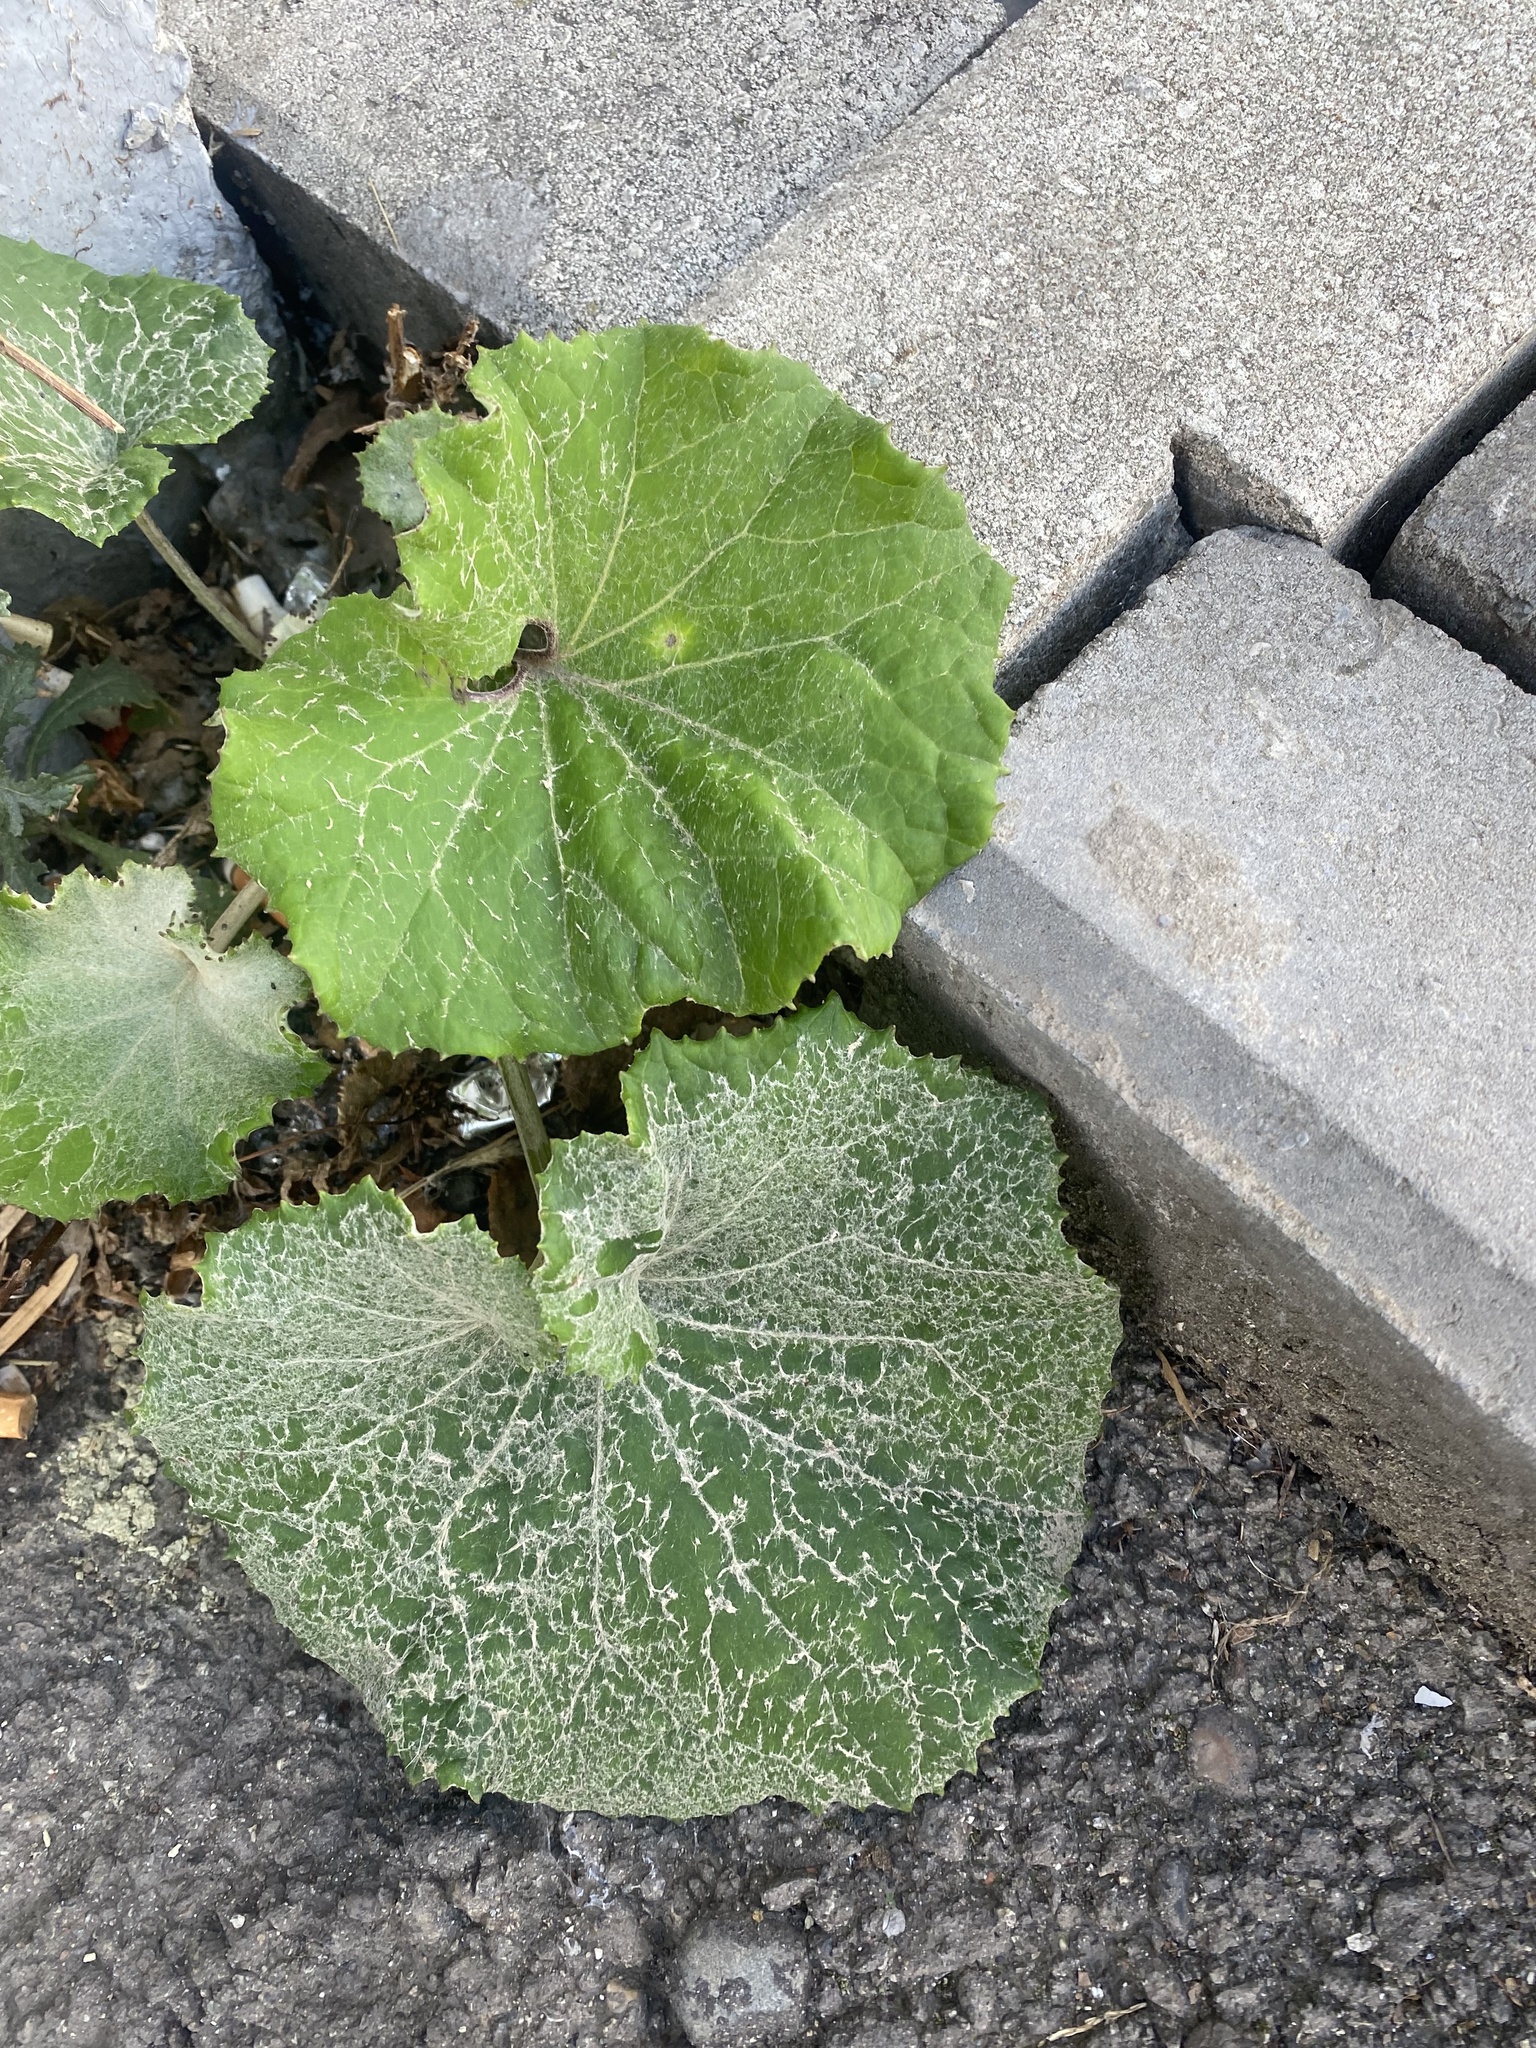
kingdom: Plantae
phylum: Tracheophyta
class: Magnoliopsida
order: Asterales
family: Asteraceae
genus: Tussilago
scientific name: Tussilago farfara
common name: Coltsfoot
